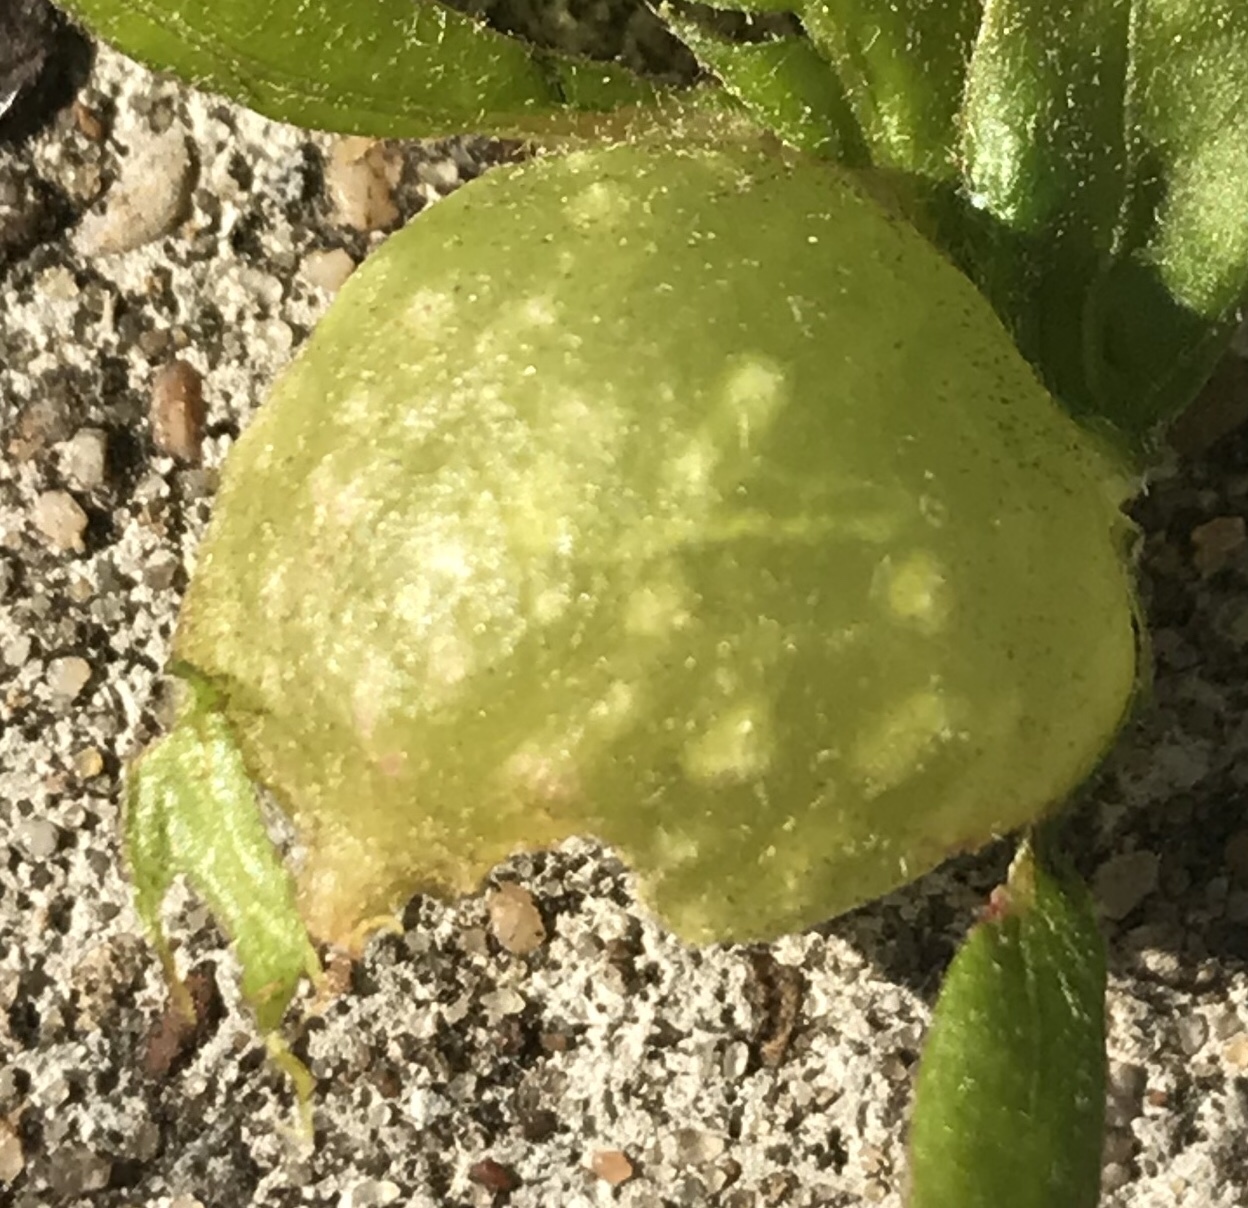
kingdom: Animalia
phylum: Arthropoda
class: Insecta
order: Hymenoptera
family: Cynipidae
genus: Dryocosmus
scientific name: Dryocosmus quercuspalustris
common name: Succulent oak gall wasp
